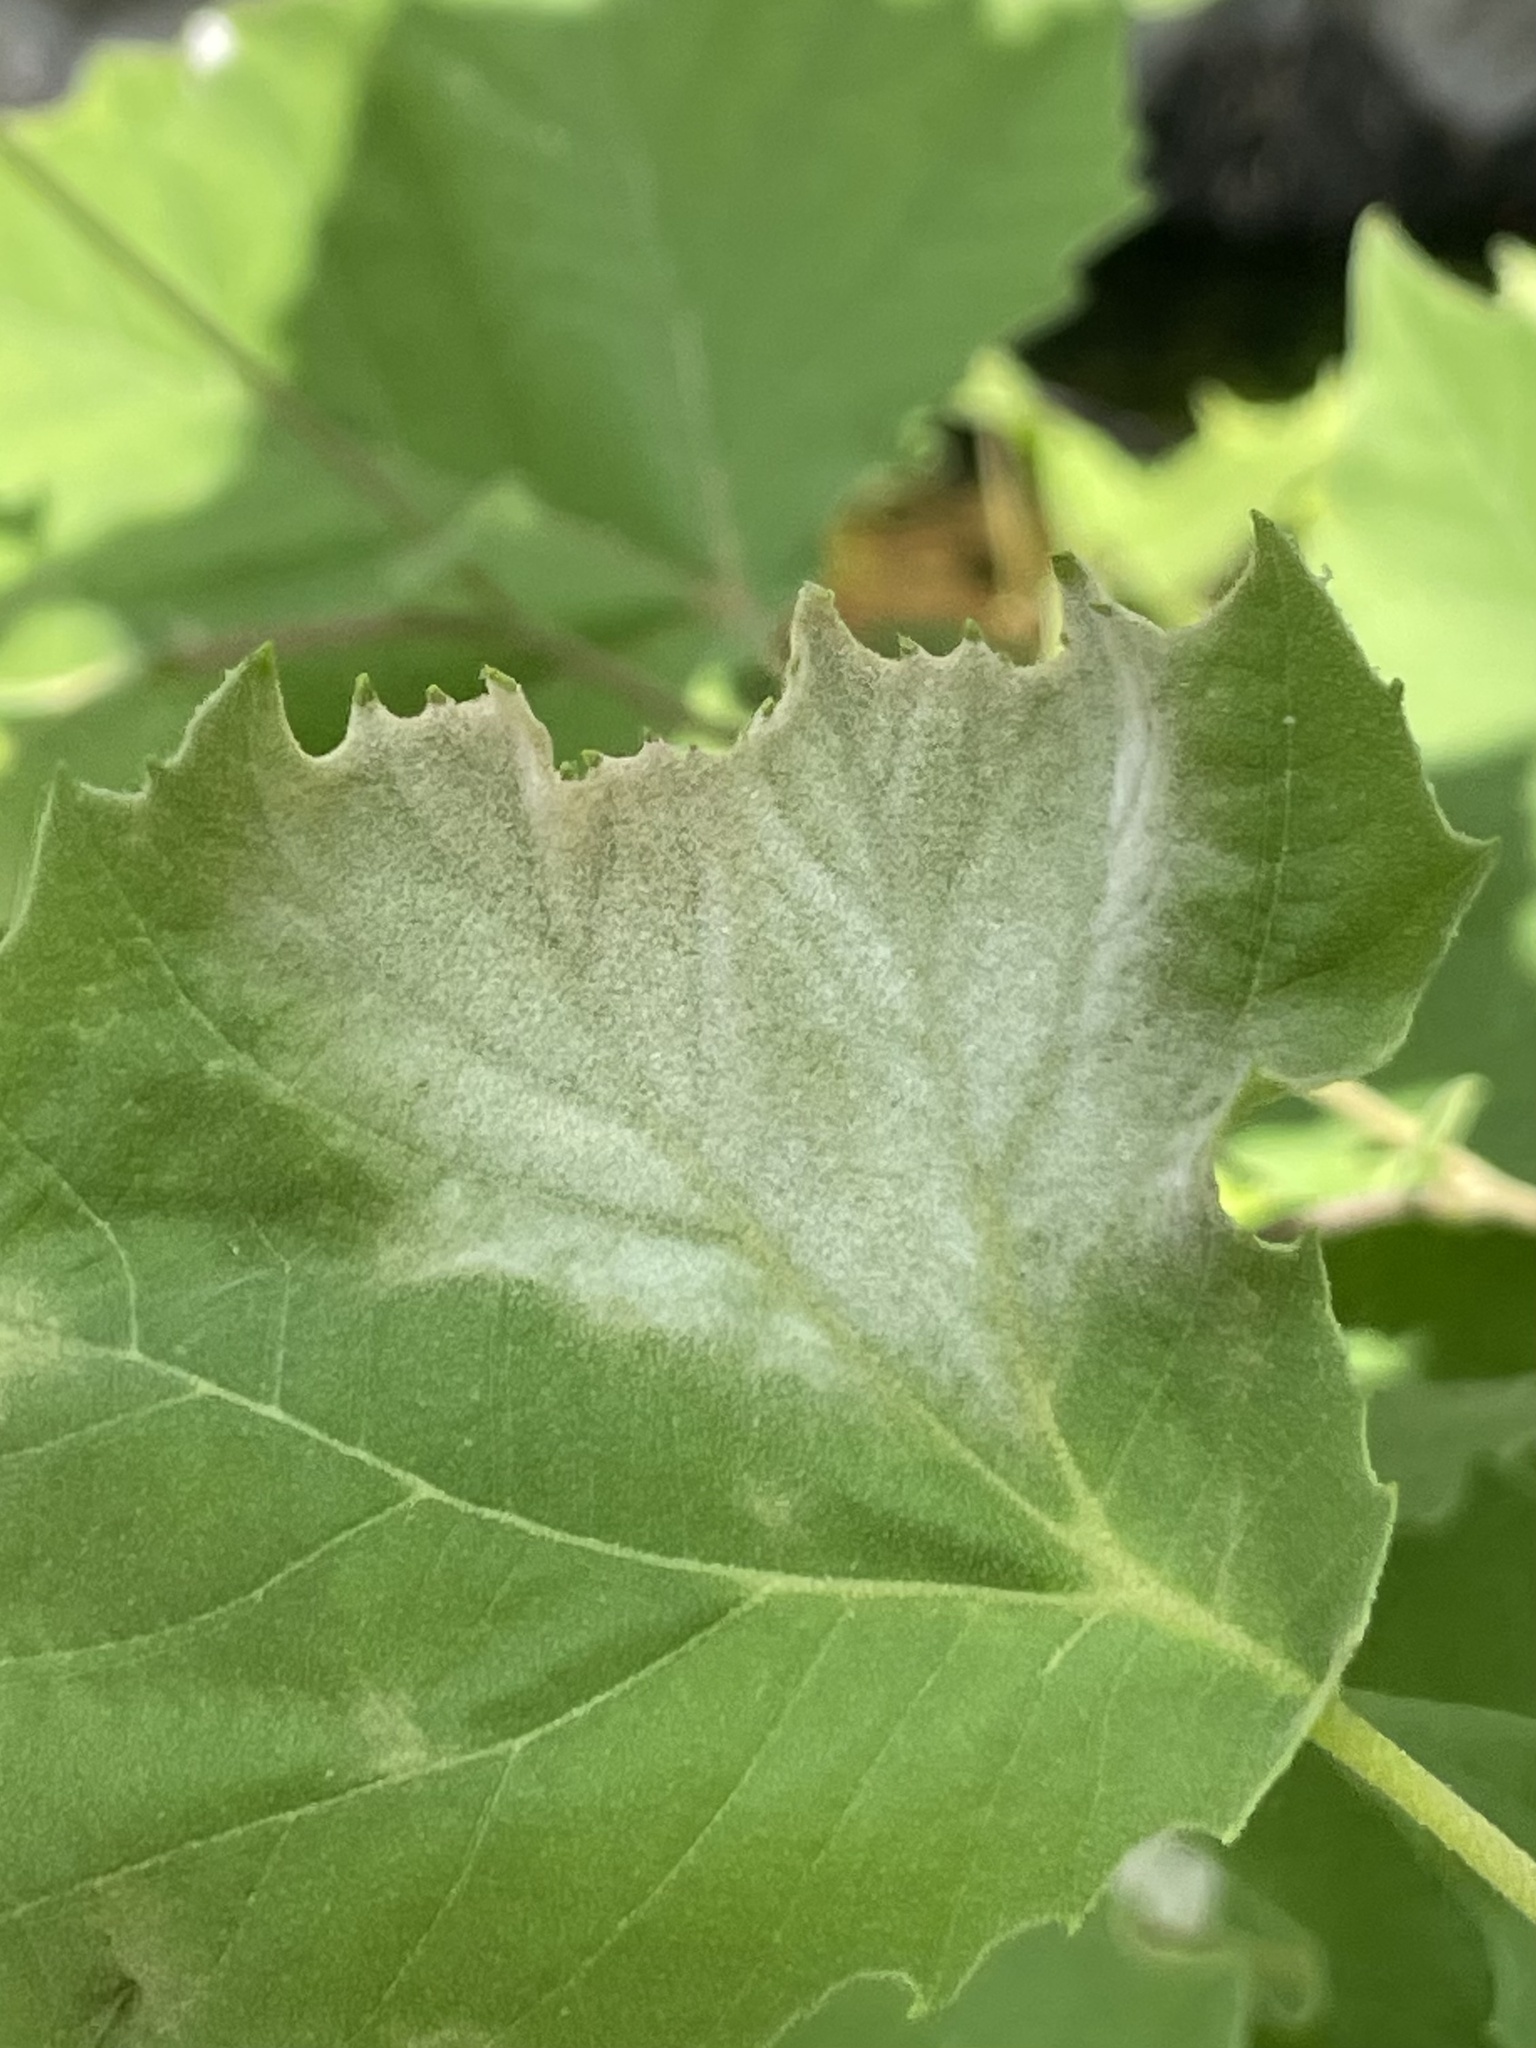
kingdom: Fungi
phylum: Ascomycota
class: Leotiomycetes
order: Helotiales
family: Erysiphaceae
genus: Erysiphe
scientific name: Erysiphe platani
